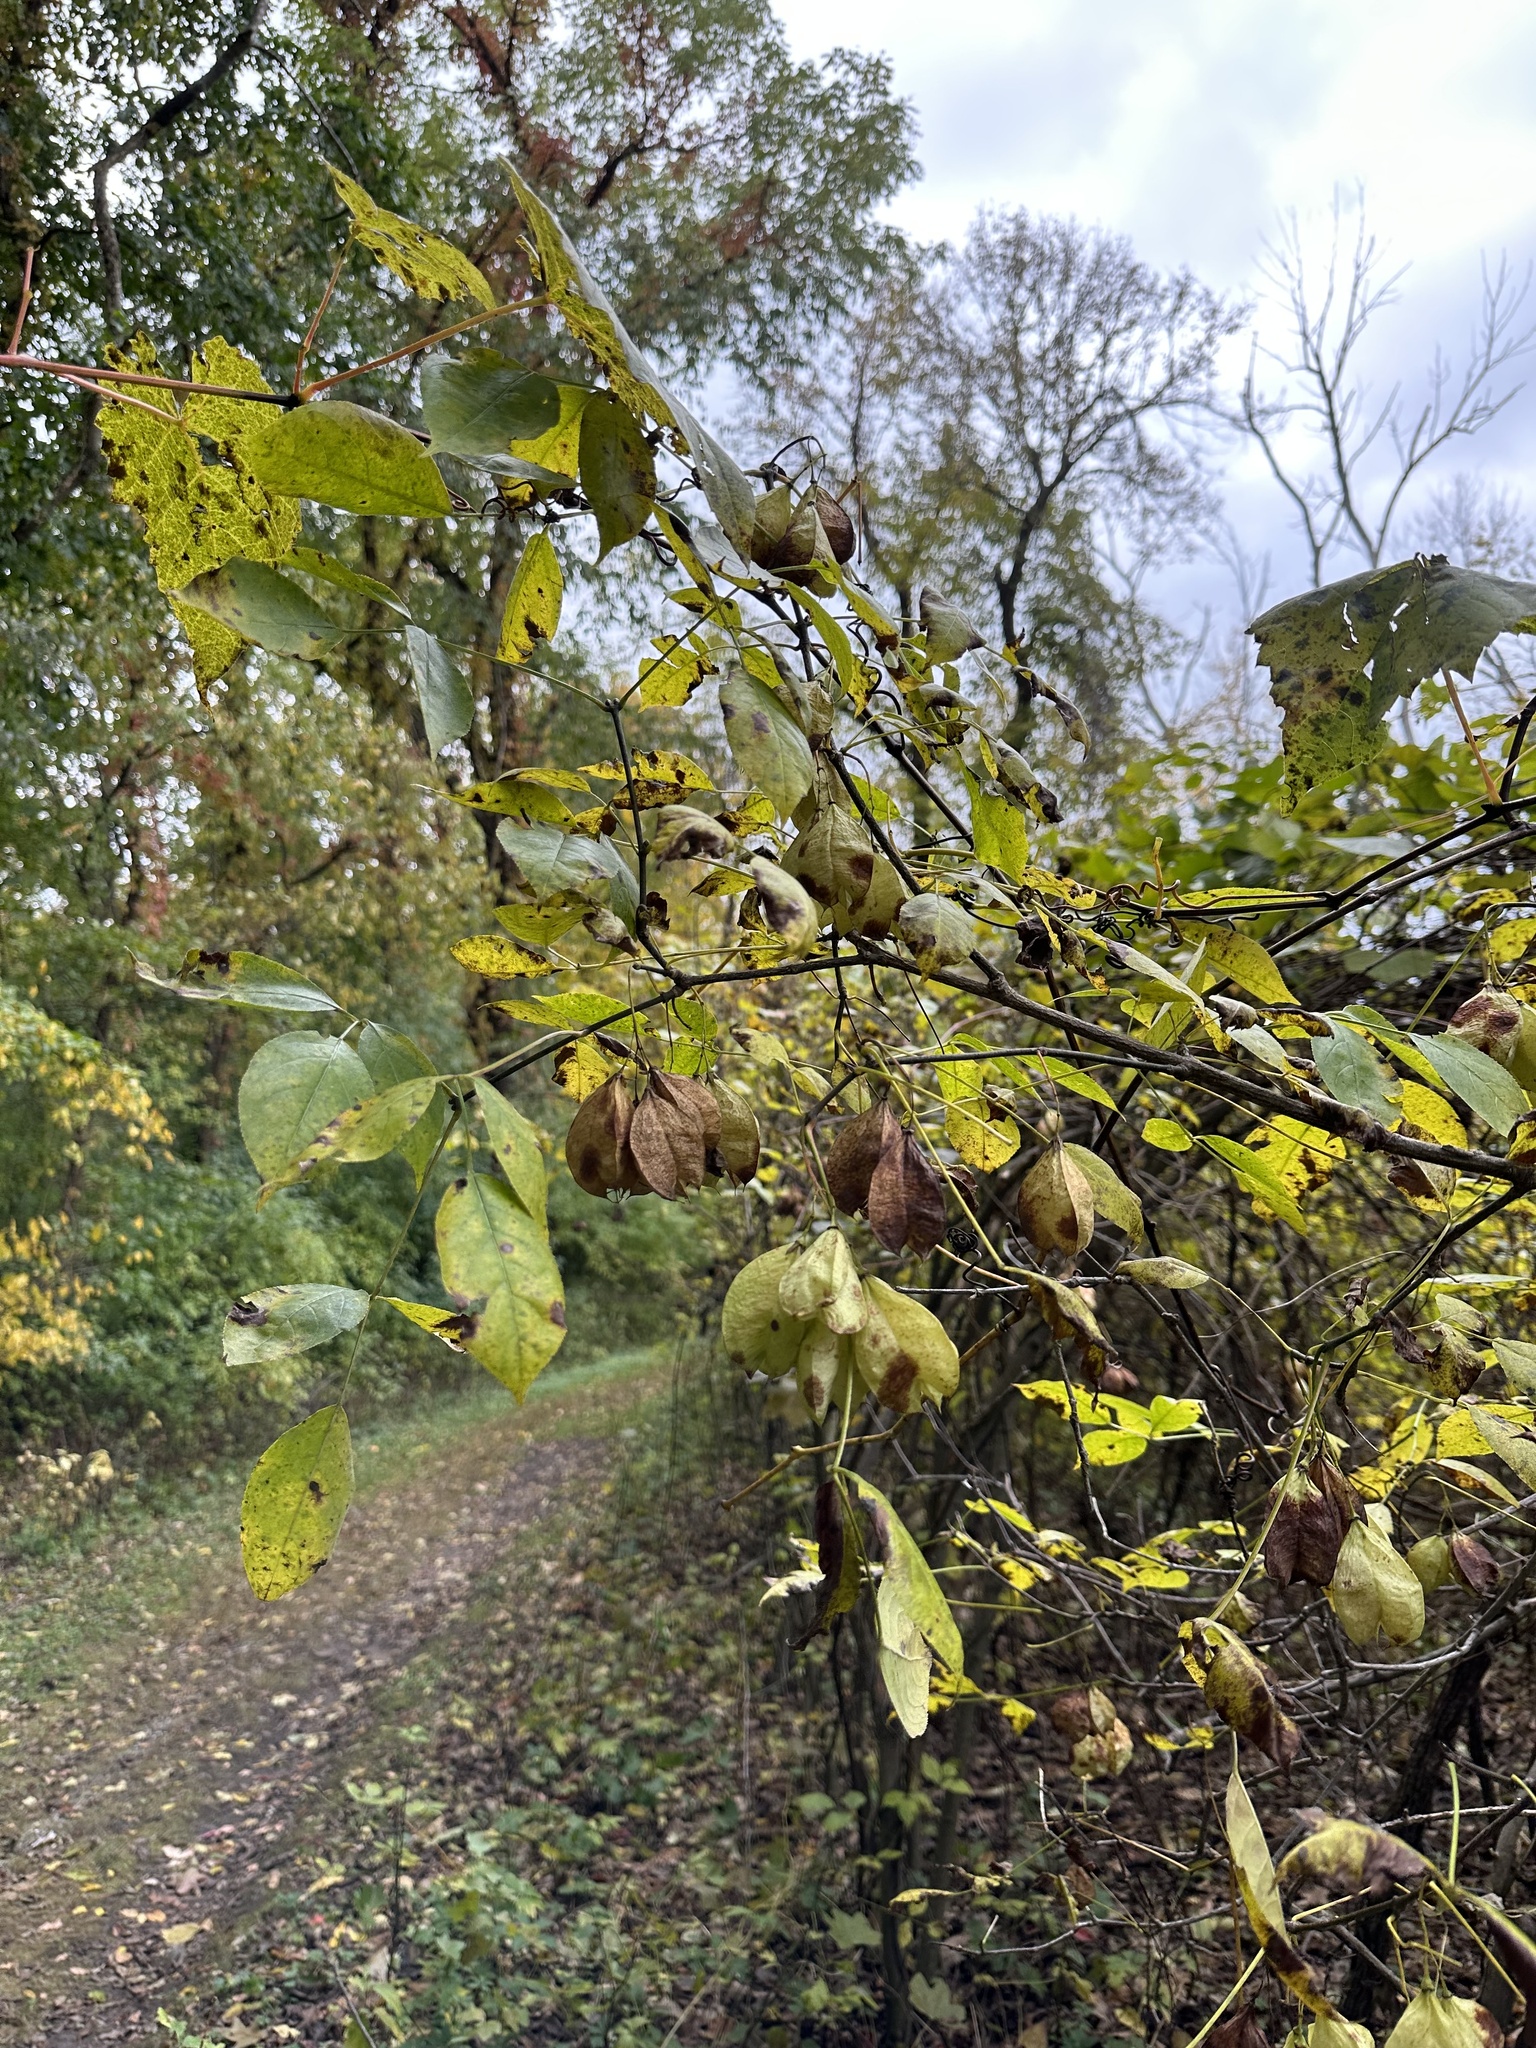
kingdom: Plantae
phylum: Tracheophyta
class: Magnoliopsida
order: Crossosomatales
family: Staphyleaceae
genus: Staphylea
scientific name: Staphylea trifolia
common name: American bladdernut
